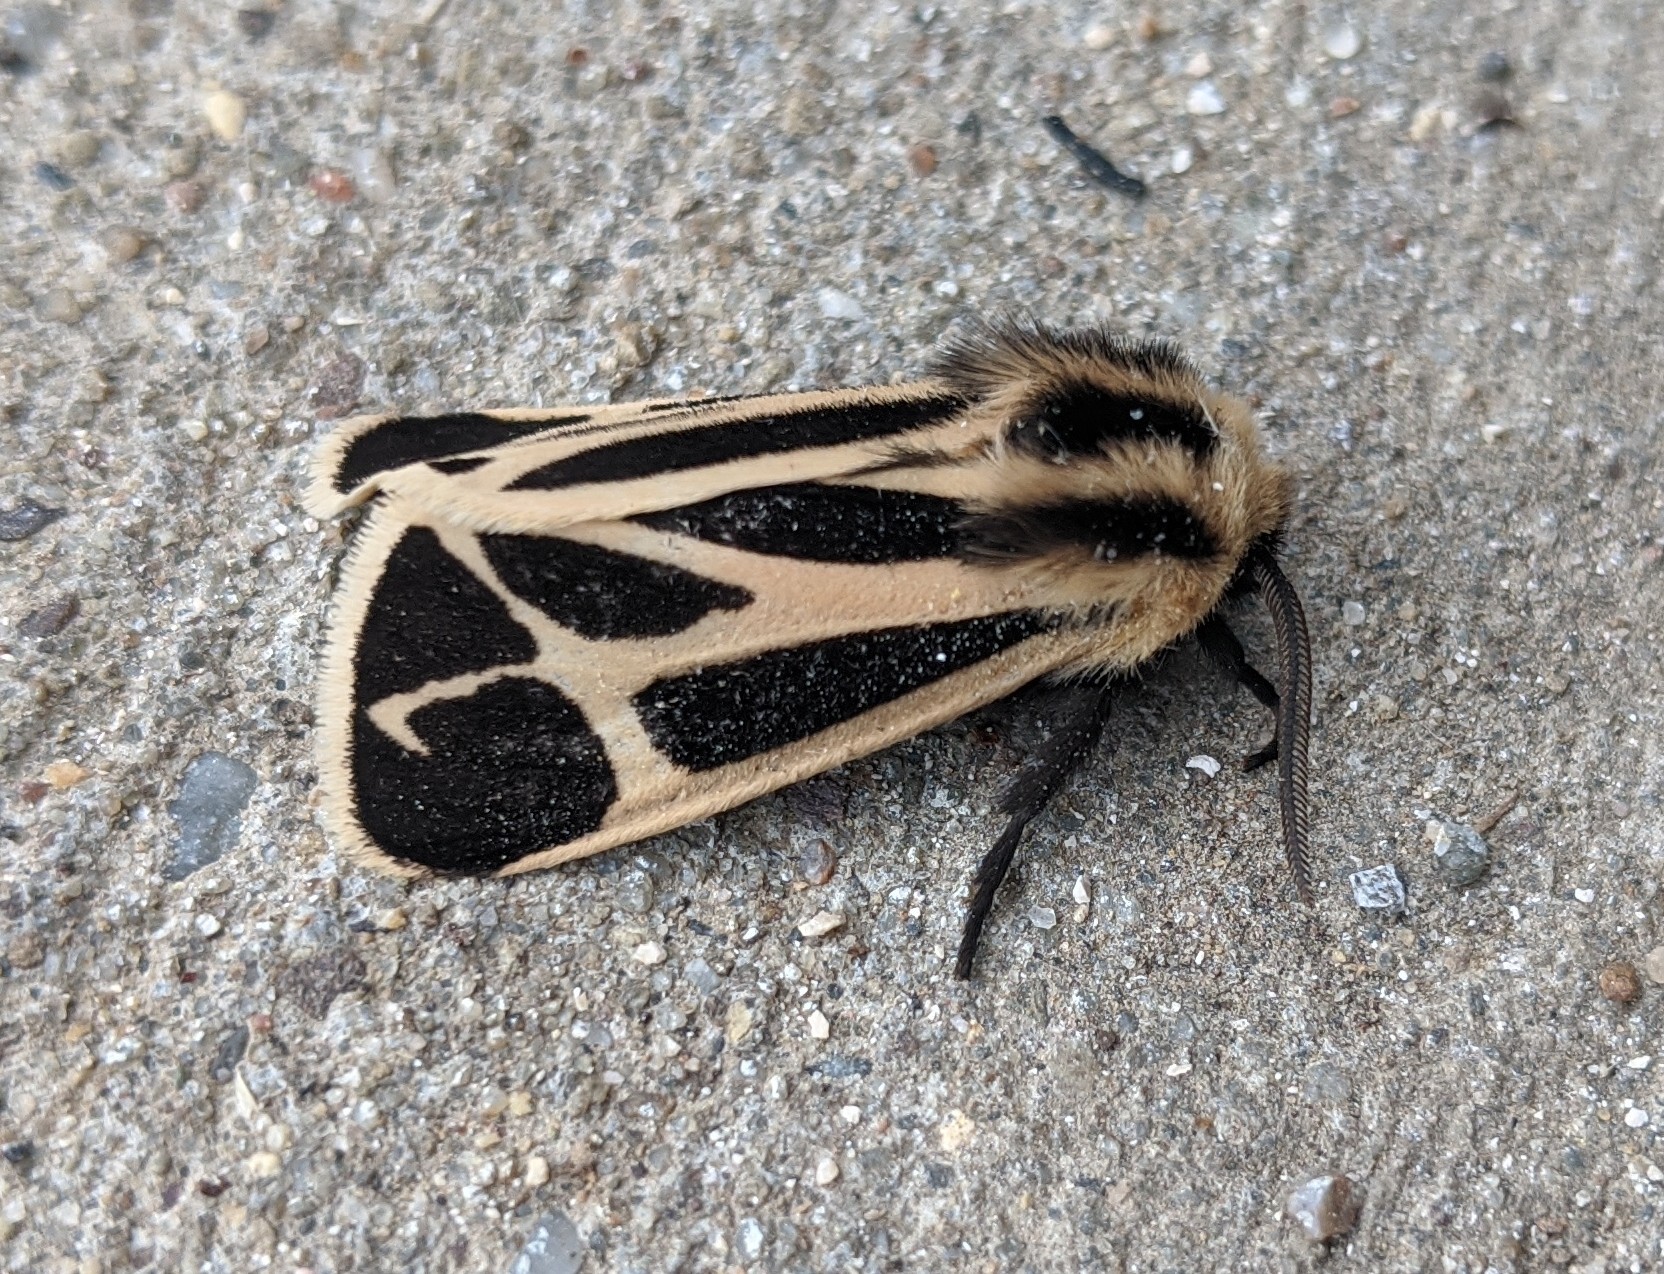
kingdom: Animalia
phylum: Arthropoda
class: Insecta
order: Lepidoptera
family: Erebidae
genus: Apantesis
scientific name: Apantesis nais
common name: Nais tiger moth
